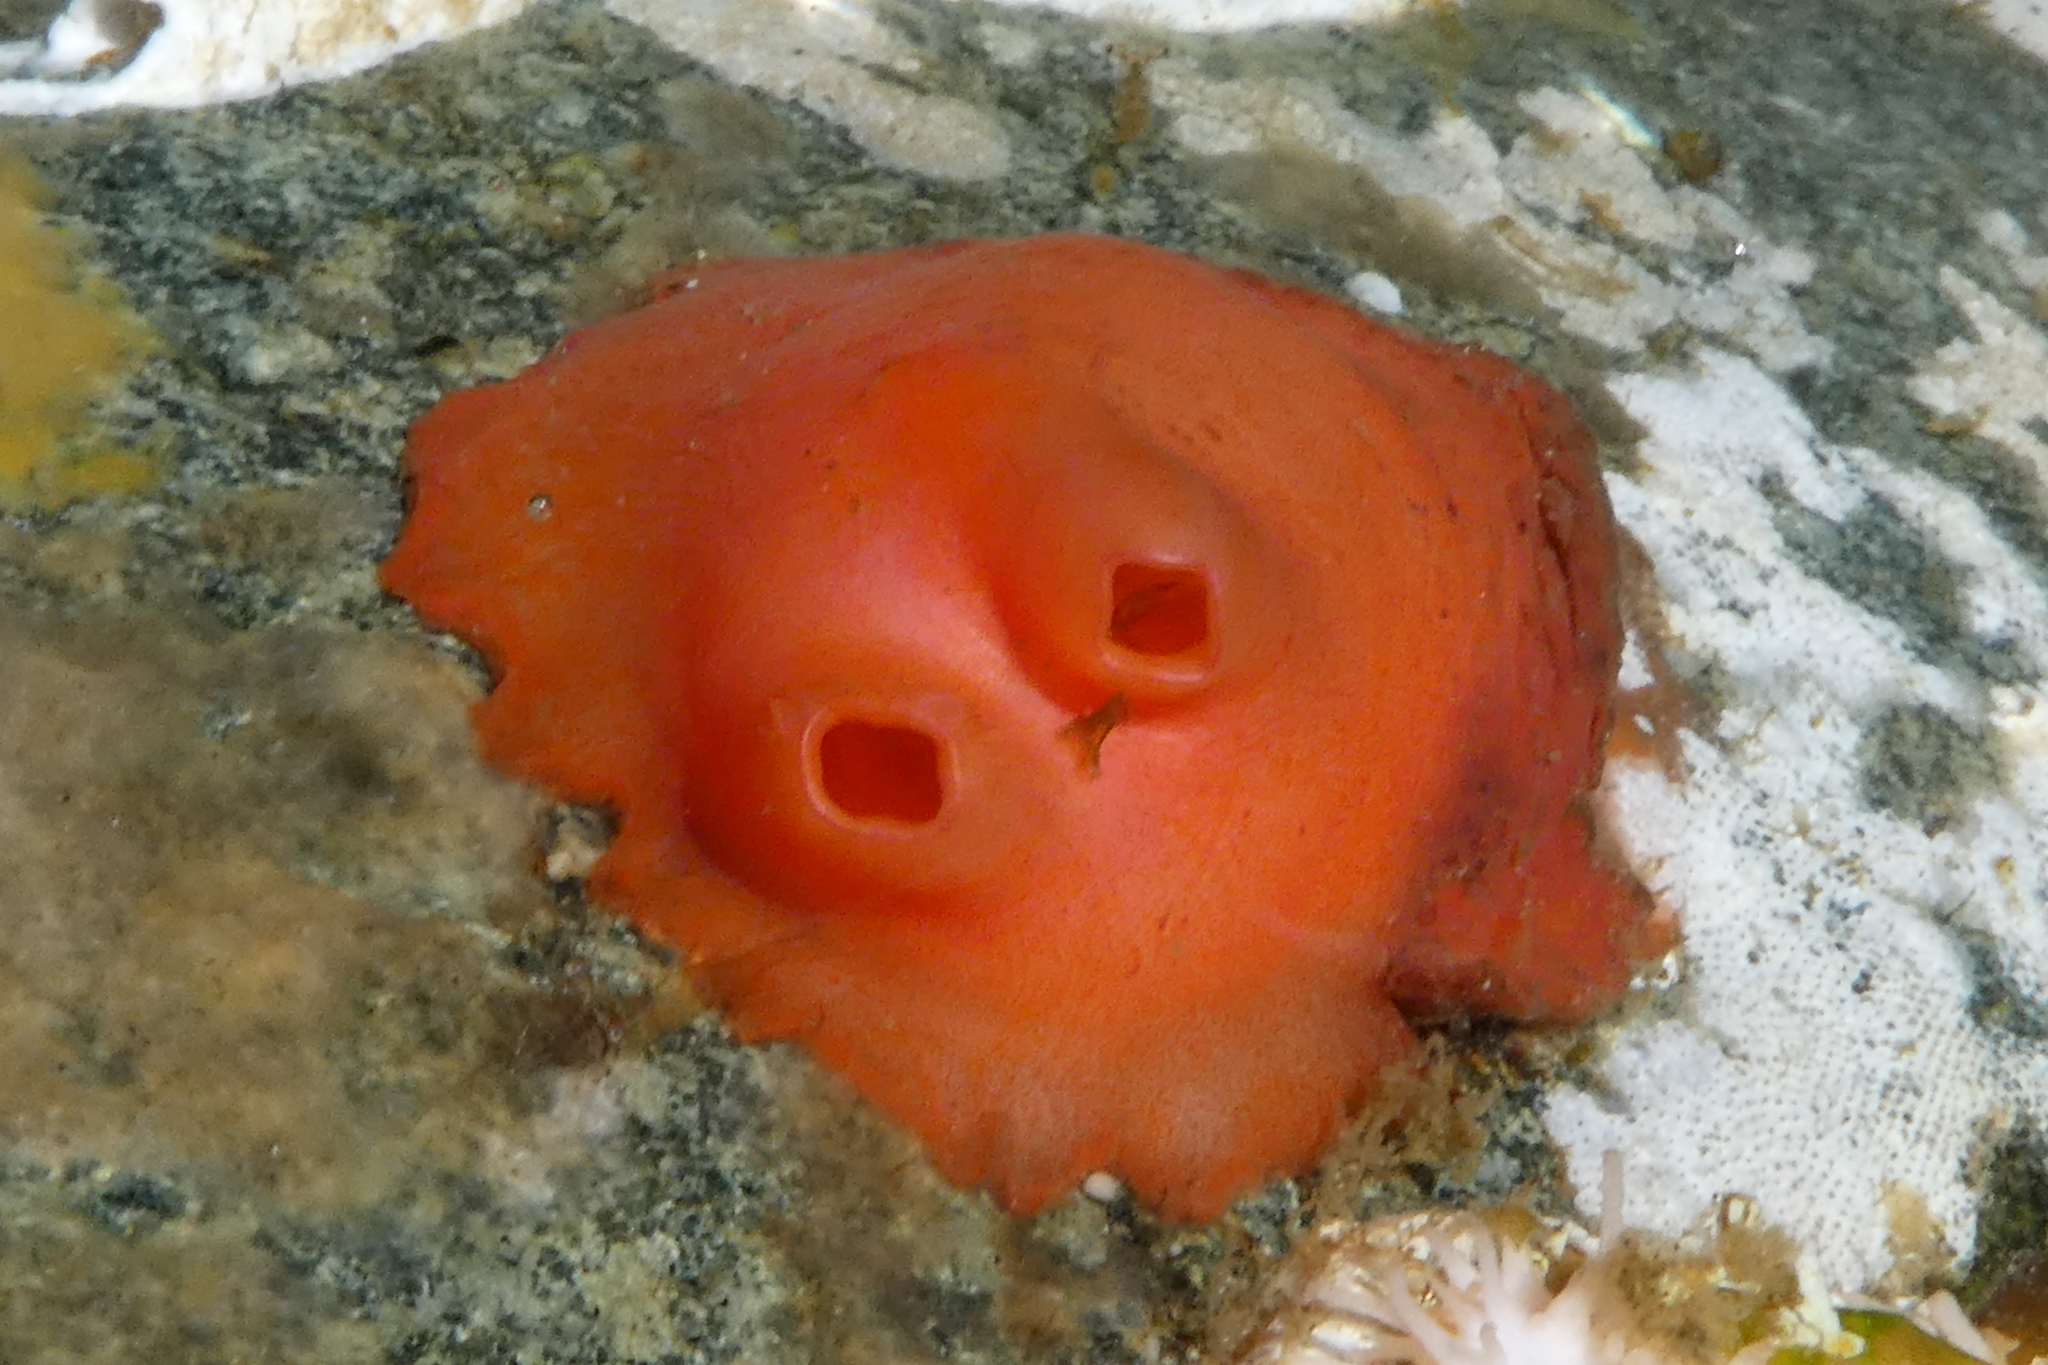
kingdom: Animalia
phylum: Chordata
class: Ascidiacea
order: Stolidobranchia
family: Styelidae
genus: Cnemidocarpa
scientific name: Cnemidocarpa finmarkiensis
